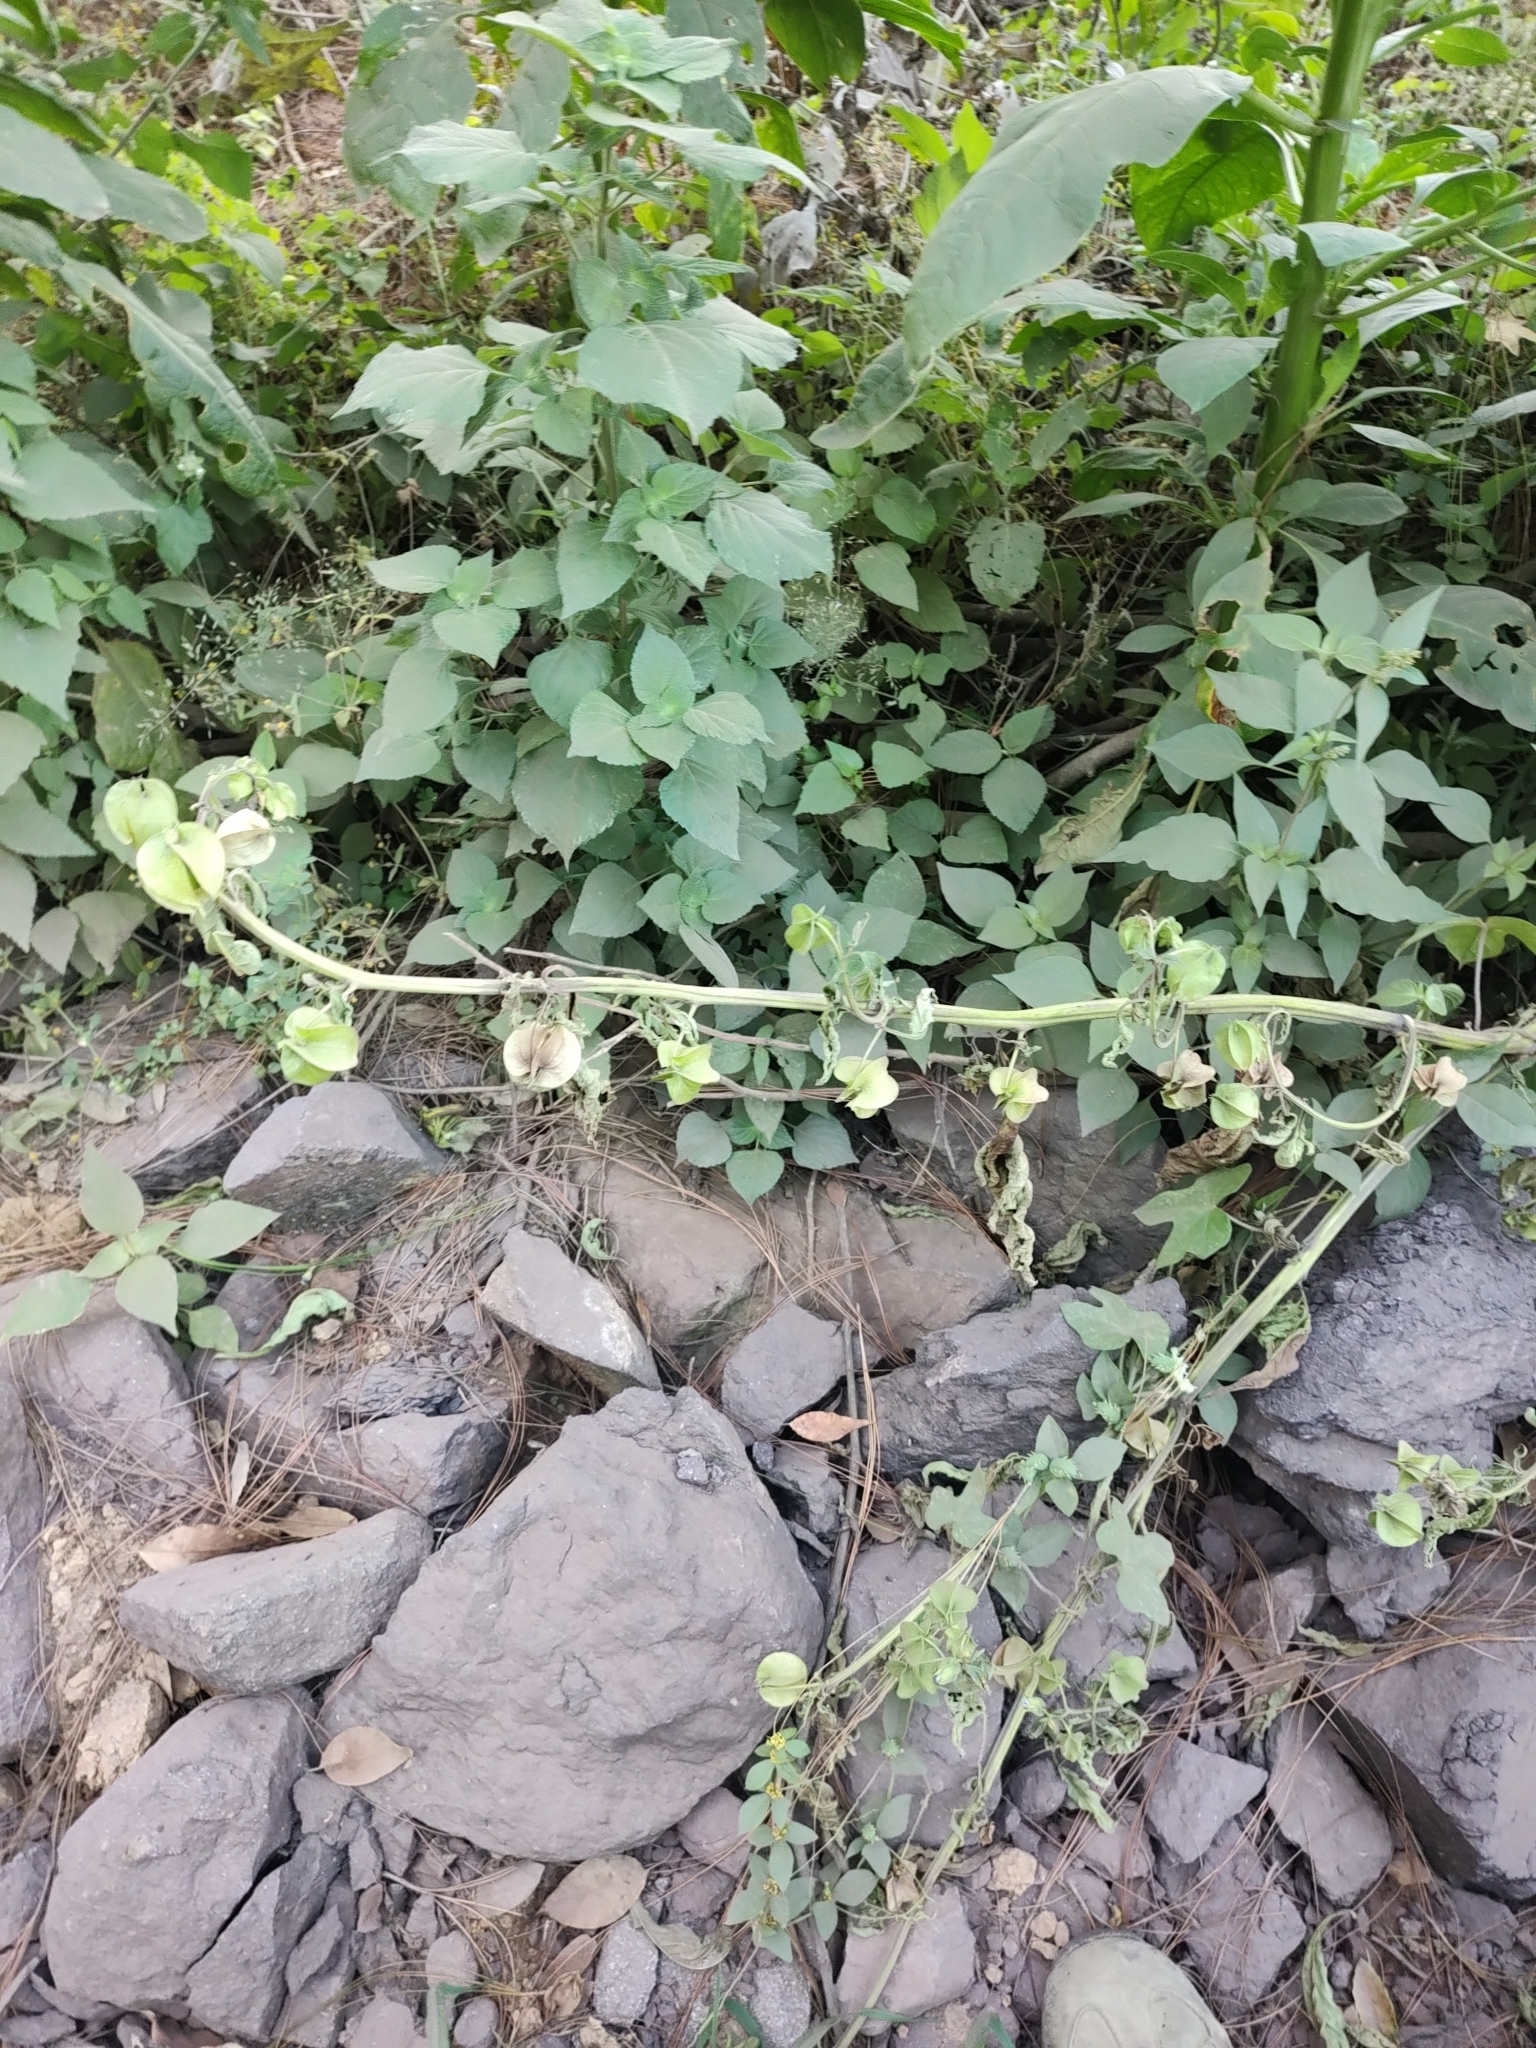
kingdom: Plantae
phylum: Tracheophyta
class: Magnoliopsida
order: Solanales
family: Solanaceae
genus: Nicandra
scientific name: Nicandra physalodes
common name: Apple-of-peru
